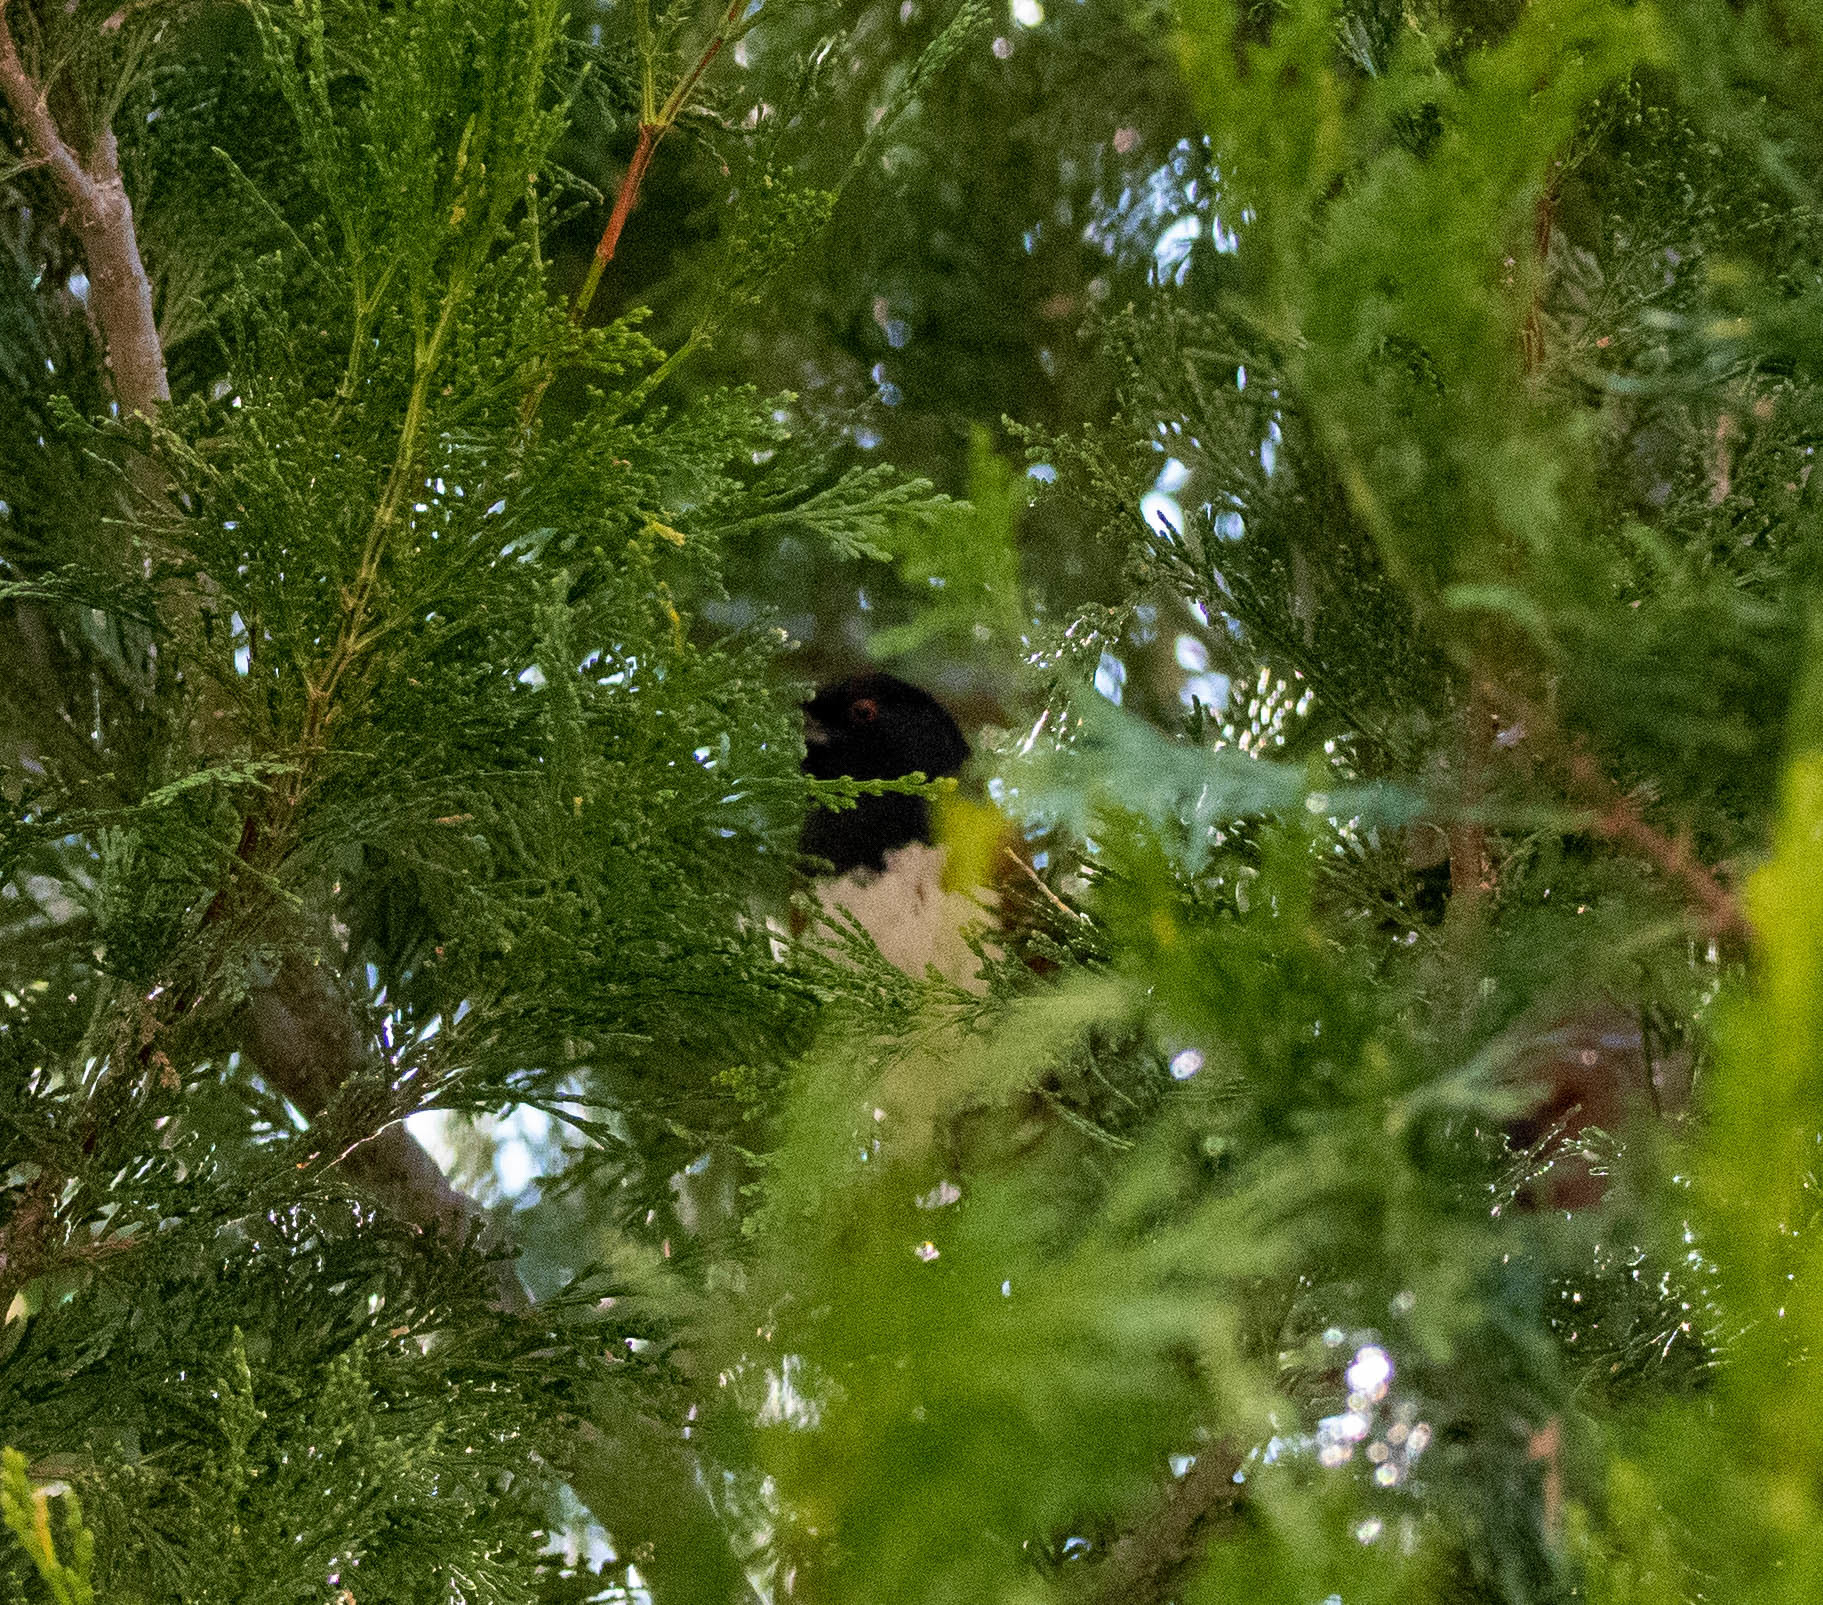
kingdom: Animalia
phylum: Chordata
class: Aves
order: Passeriformes
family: Passerellidae
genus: Pipilo
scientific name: Pipilo maculatus
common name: Spotted towhee
